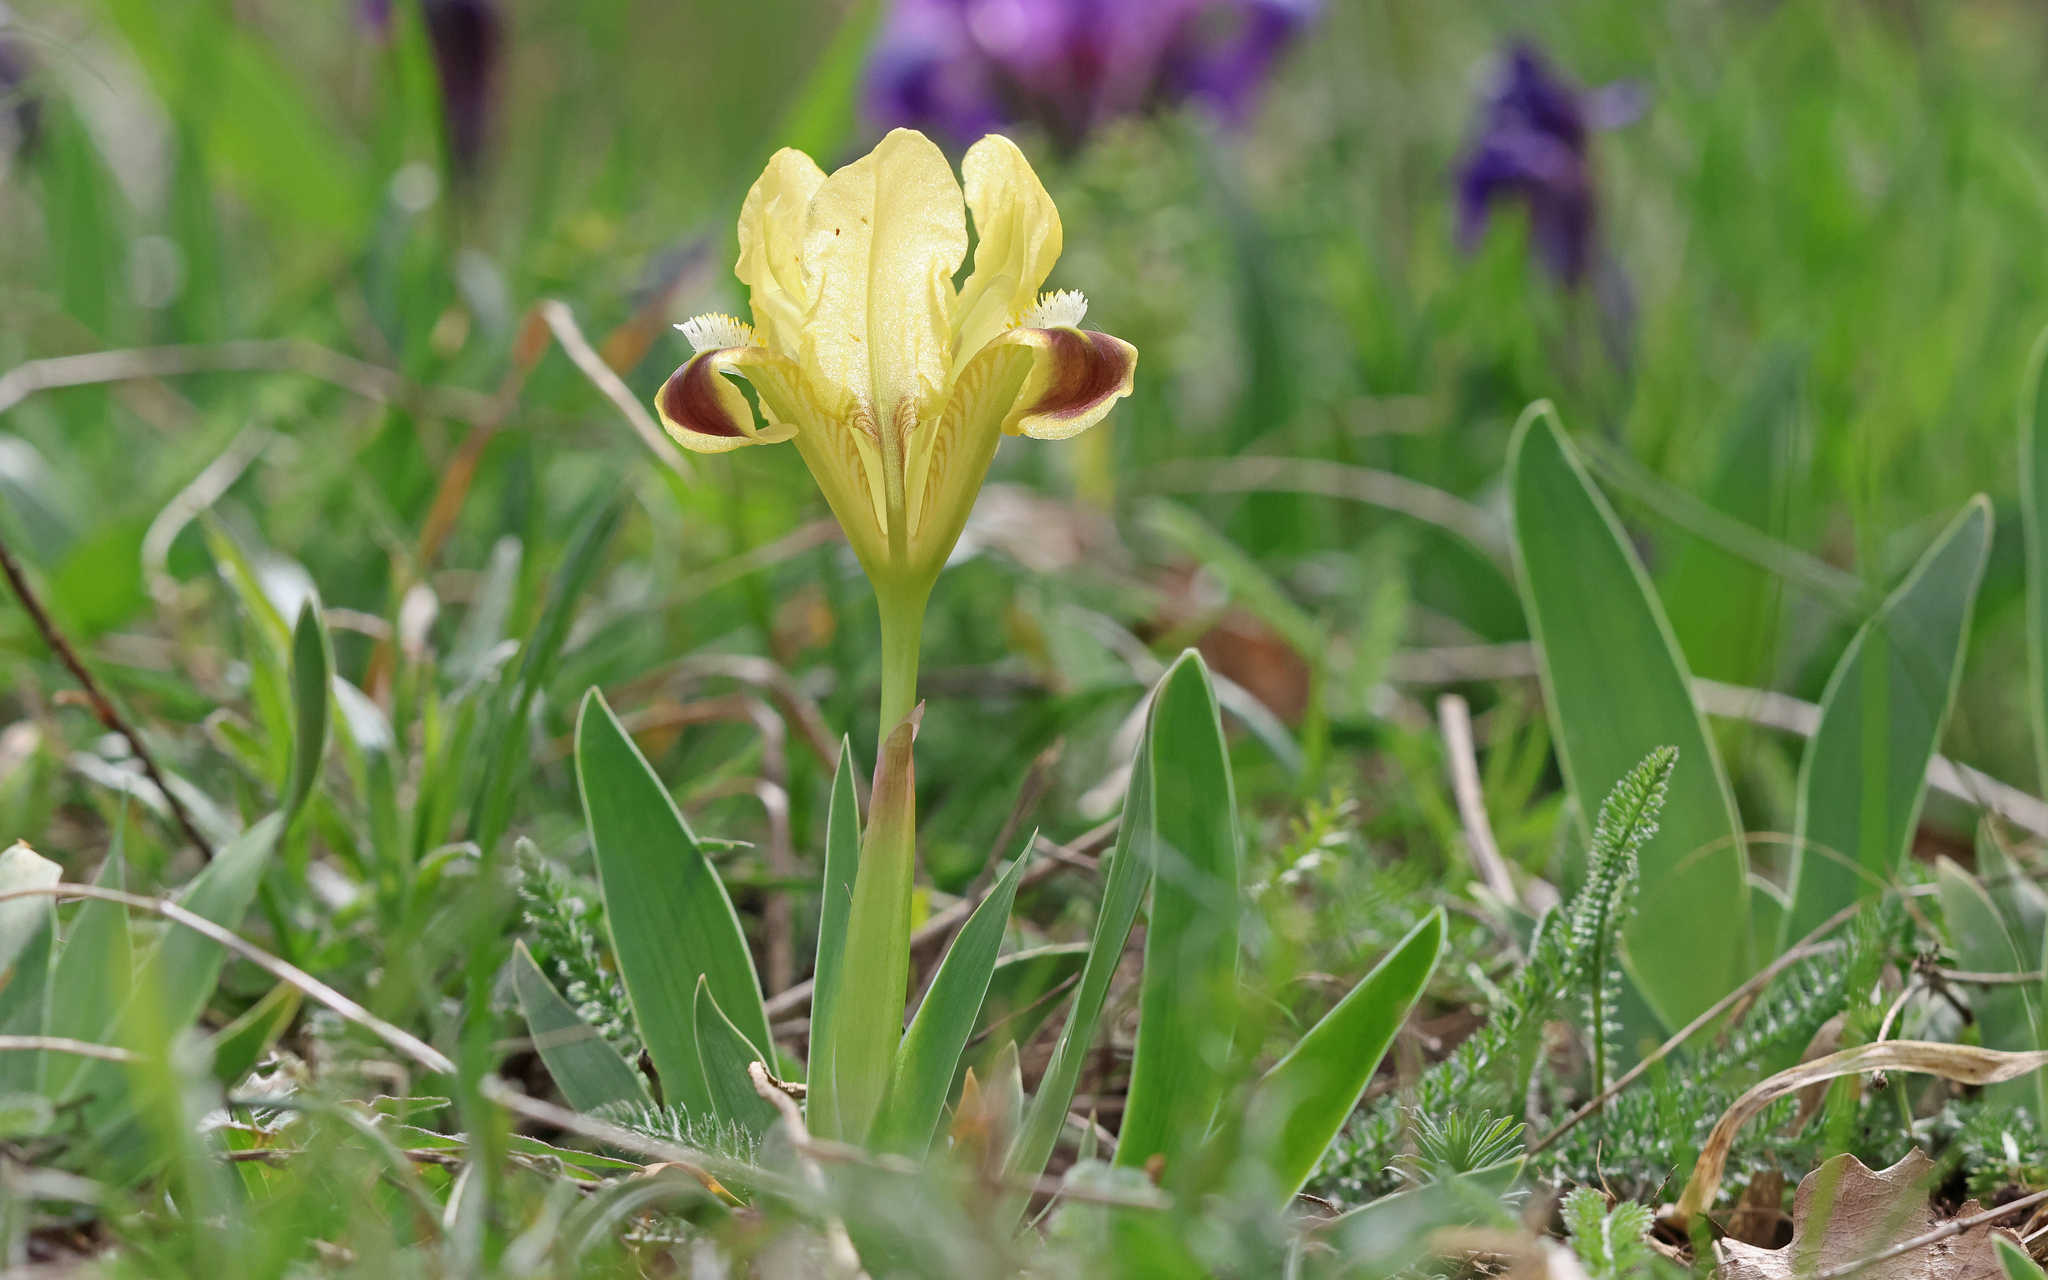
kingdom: Plantae
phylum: Tracheophyta
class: Liliopsida
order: Asparagales
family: Iridaceae
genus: Iris
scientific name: Iris pumila
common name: Dwarf iris
